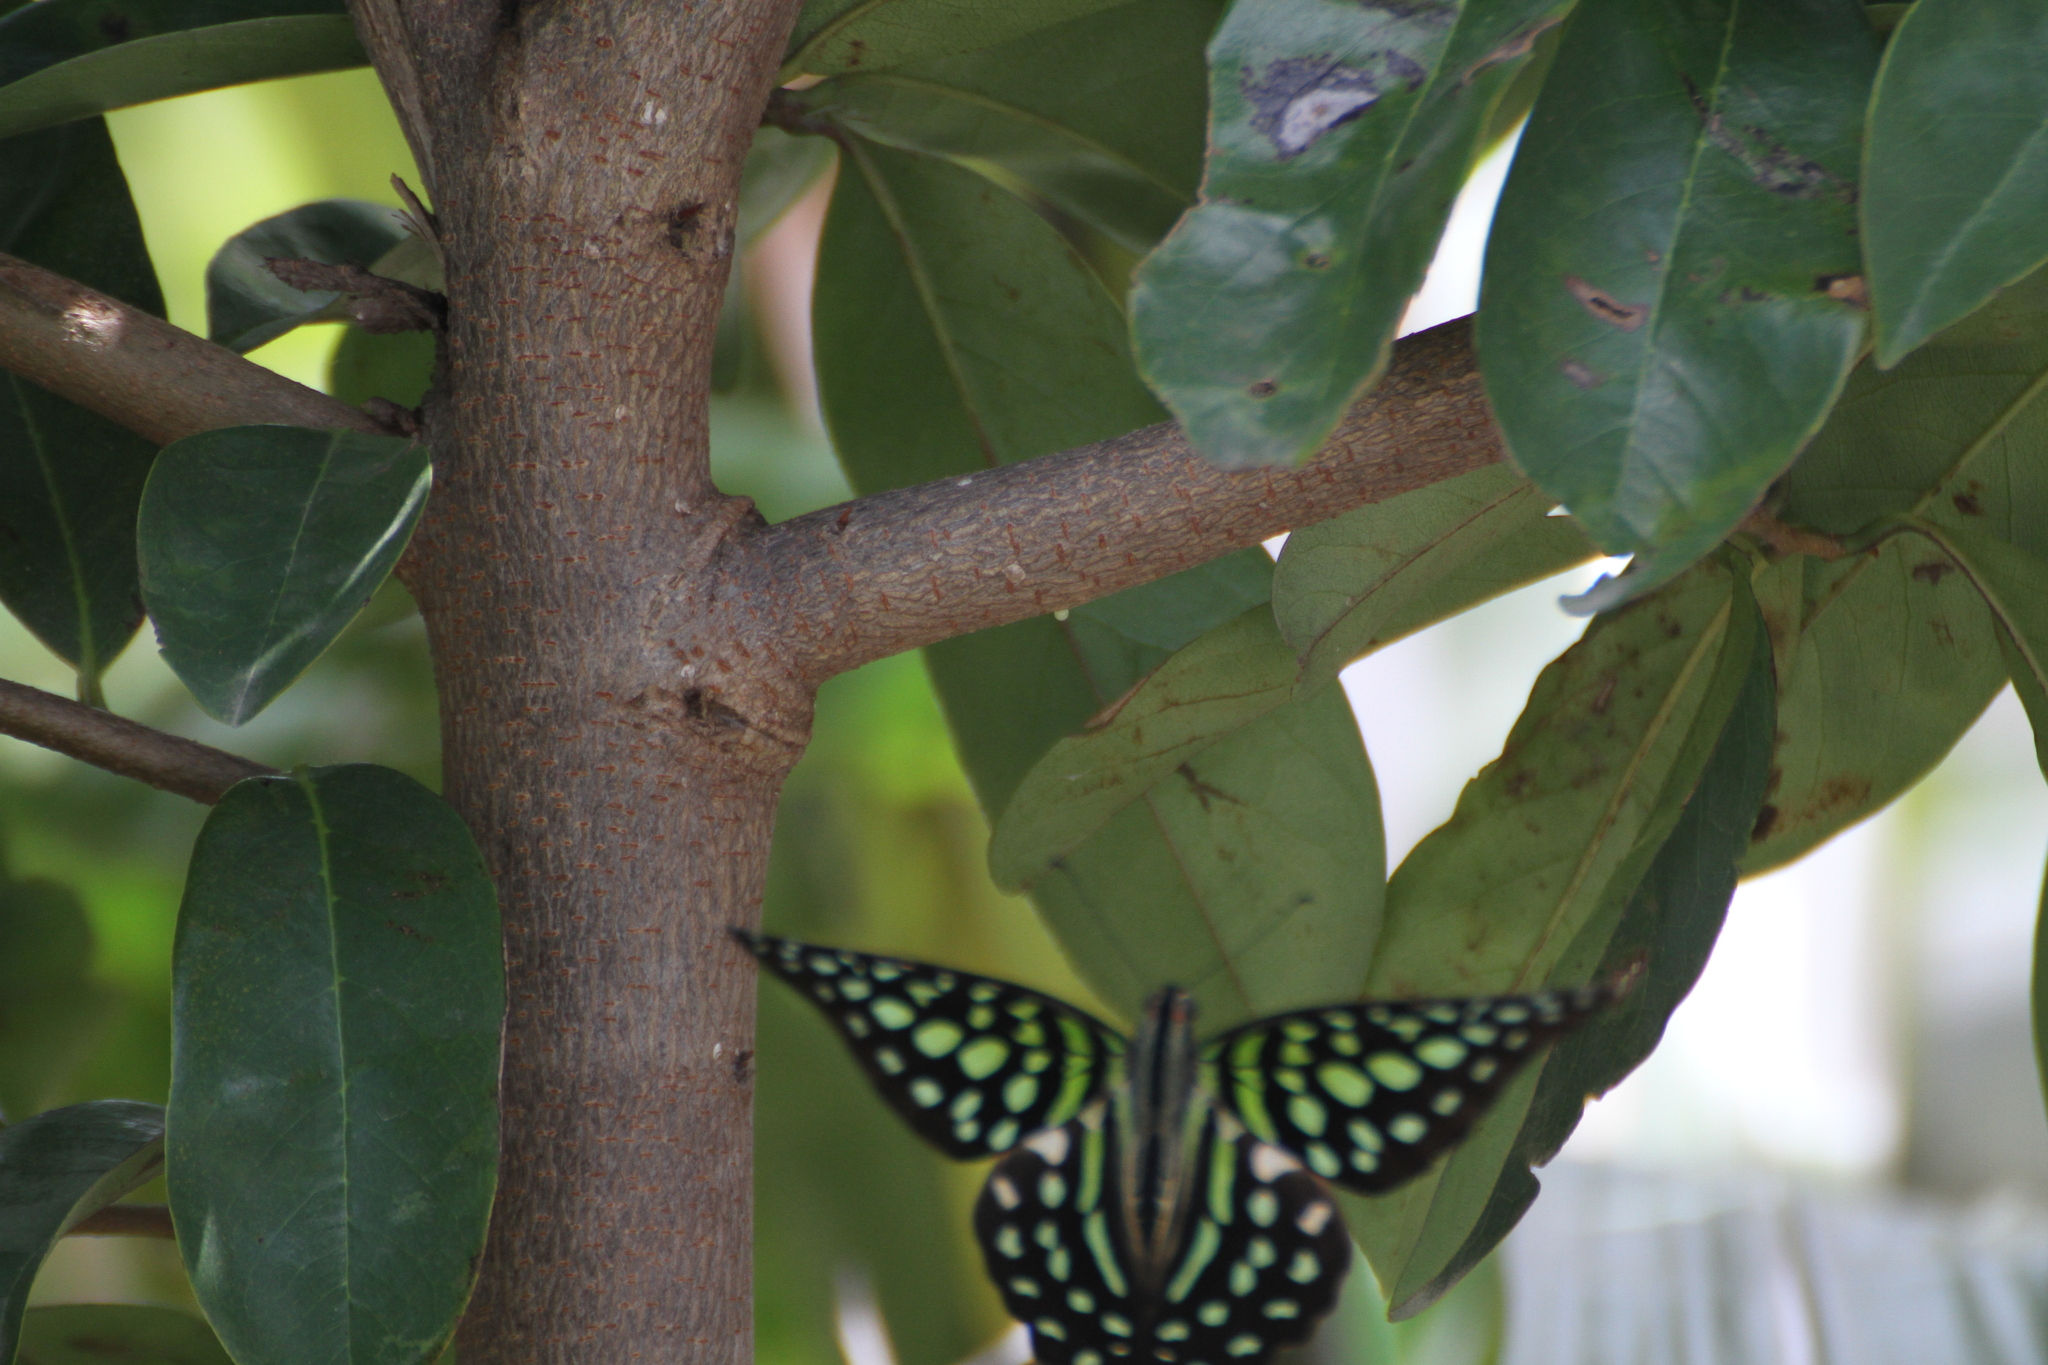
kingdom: Animalia
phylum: Arthropoda
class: Insecta
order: Lepidoptera
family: Papilionidae
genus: Graphium
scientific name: Graphium agamemnon
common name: Tailed jay
